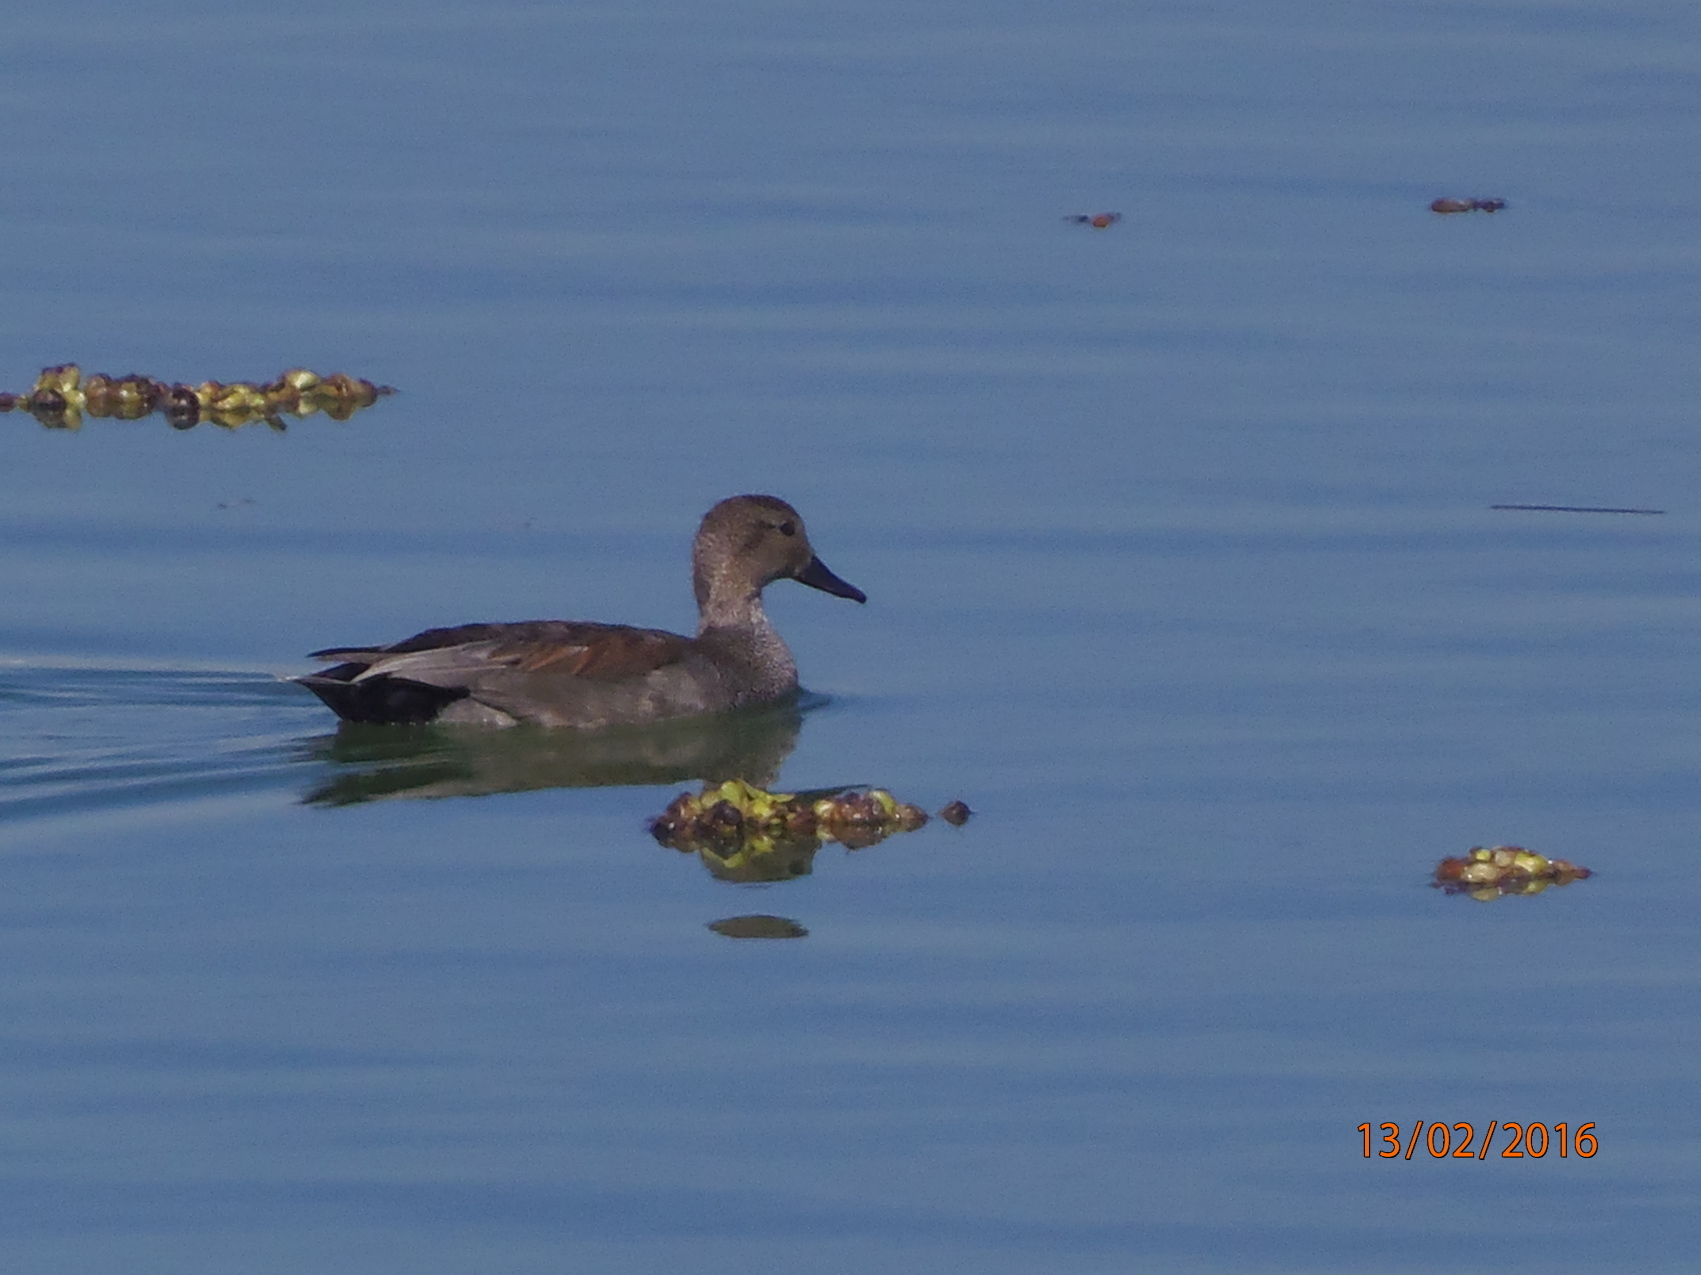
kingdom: Animalia
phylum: Chordata
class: Aves
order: Anseriformes
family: Anatidae
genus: Mareca
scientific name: Mareca strepera
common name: Gadwall
